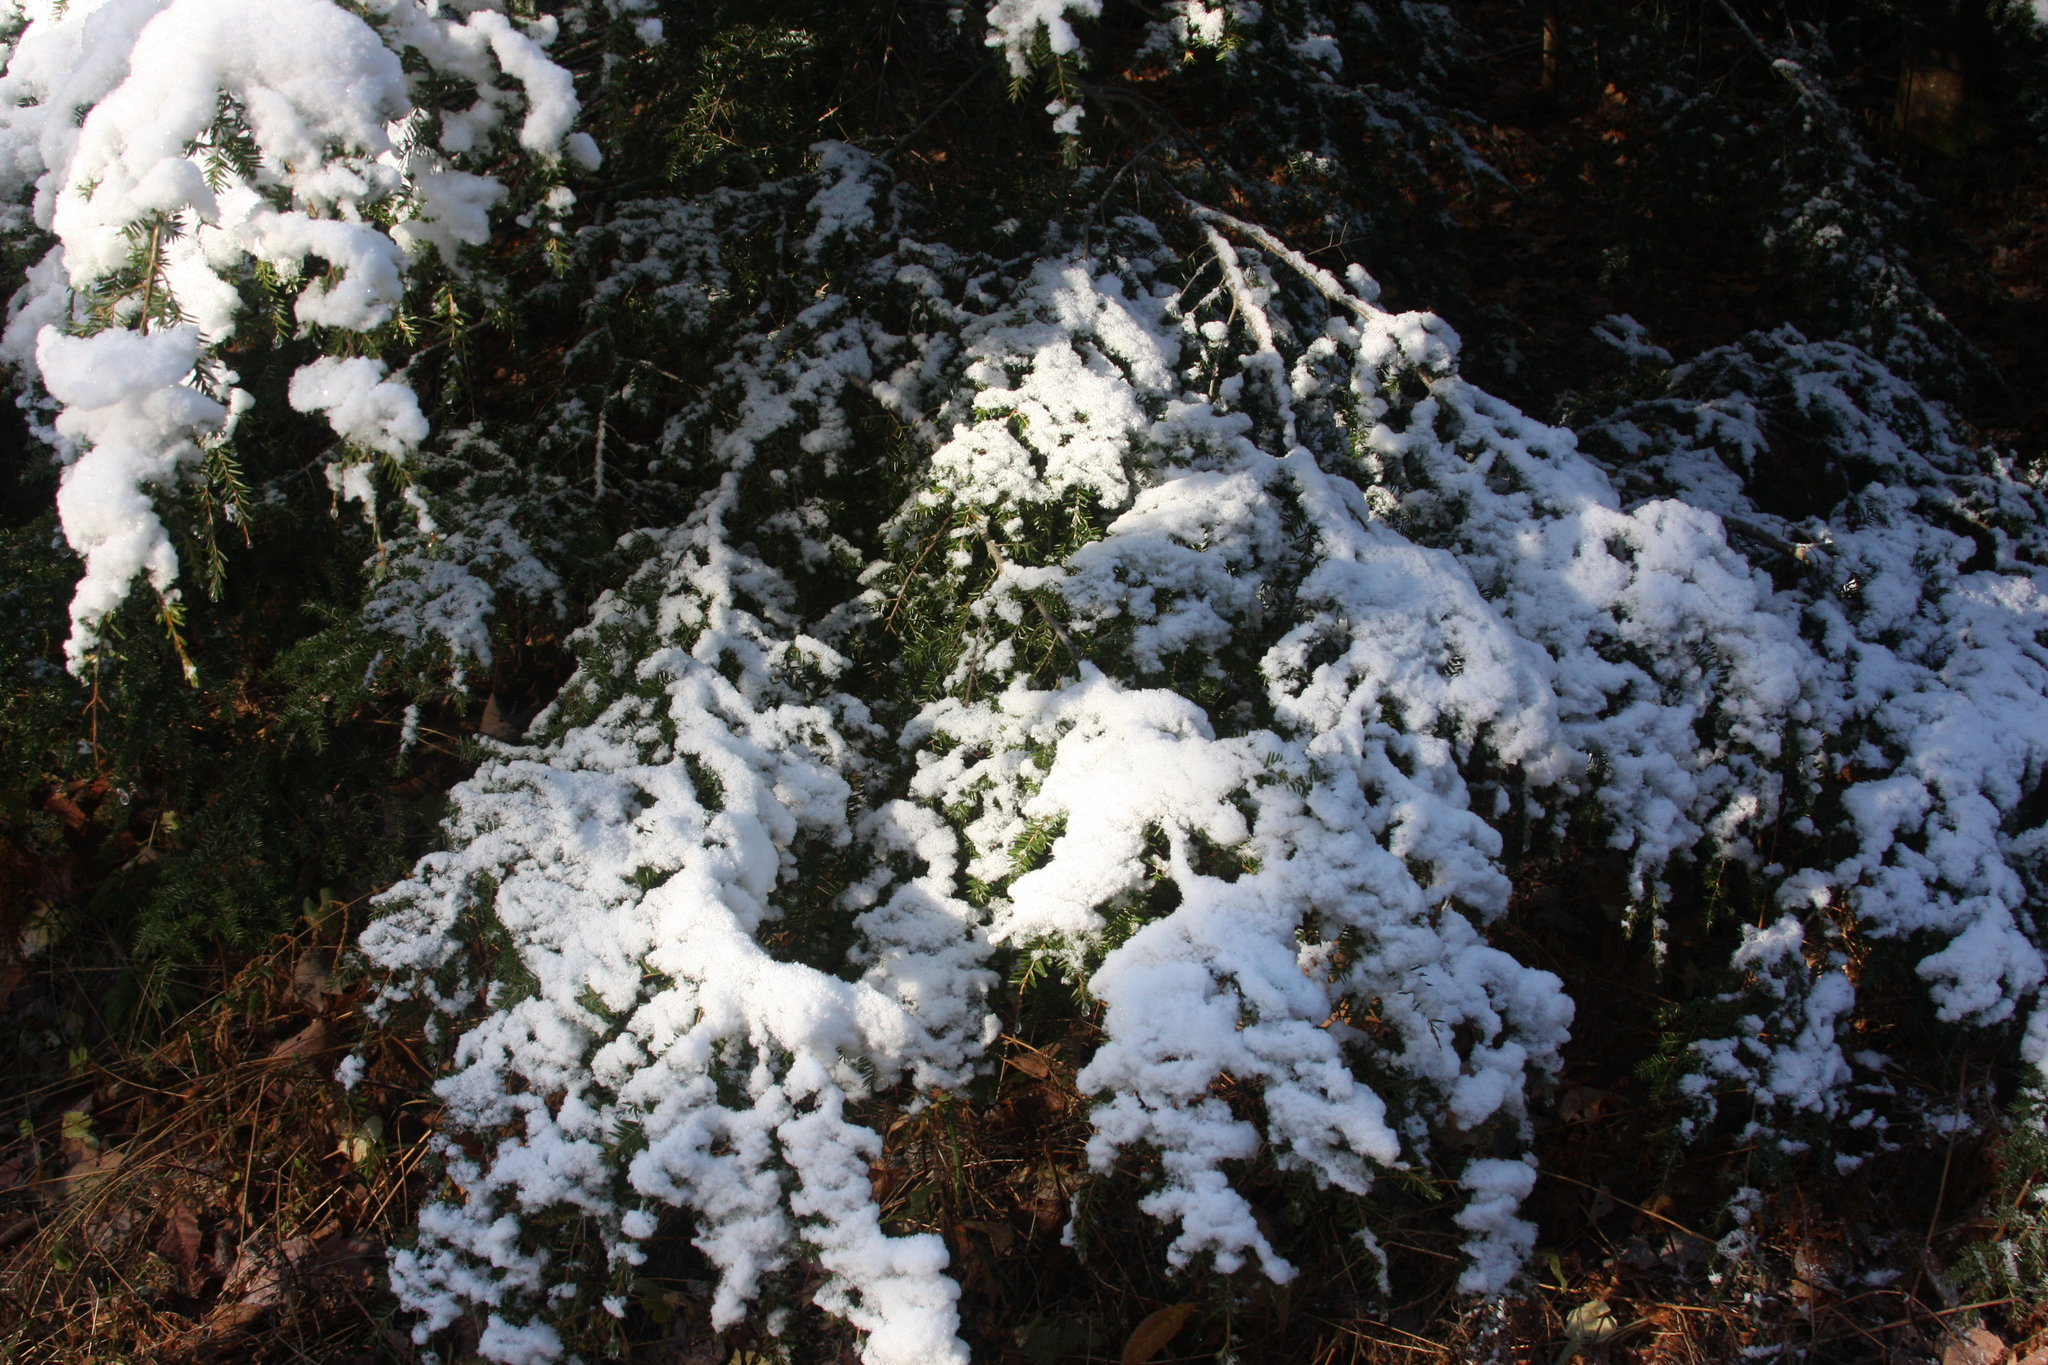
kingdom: Plantae
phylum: Tracheophyta
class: Pinopsida
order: Pinales
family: Pinaceae
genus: Tsuga
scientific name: Tsuga canadensis
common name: Eastern hemlock
